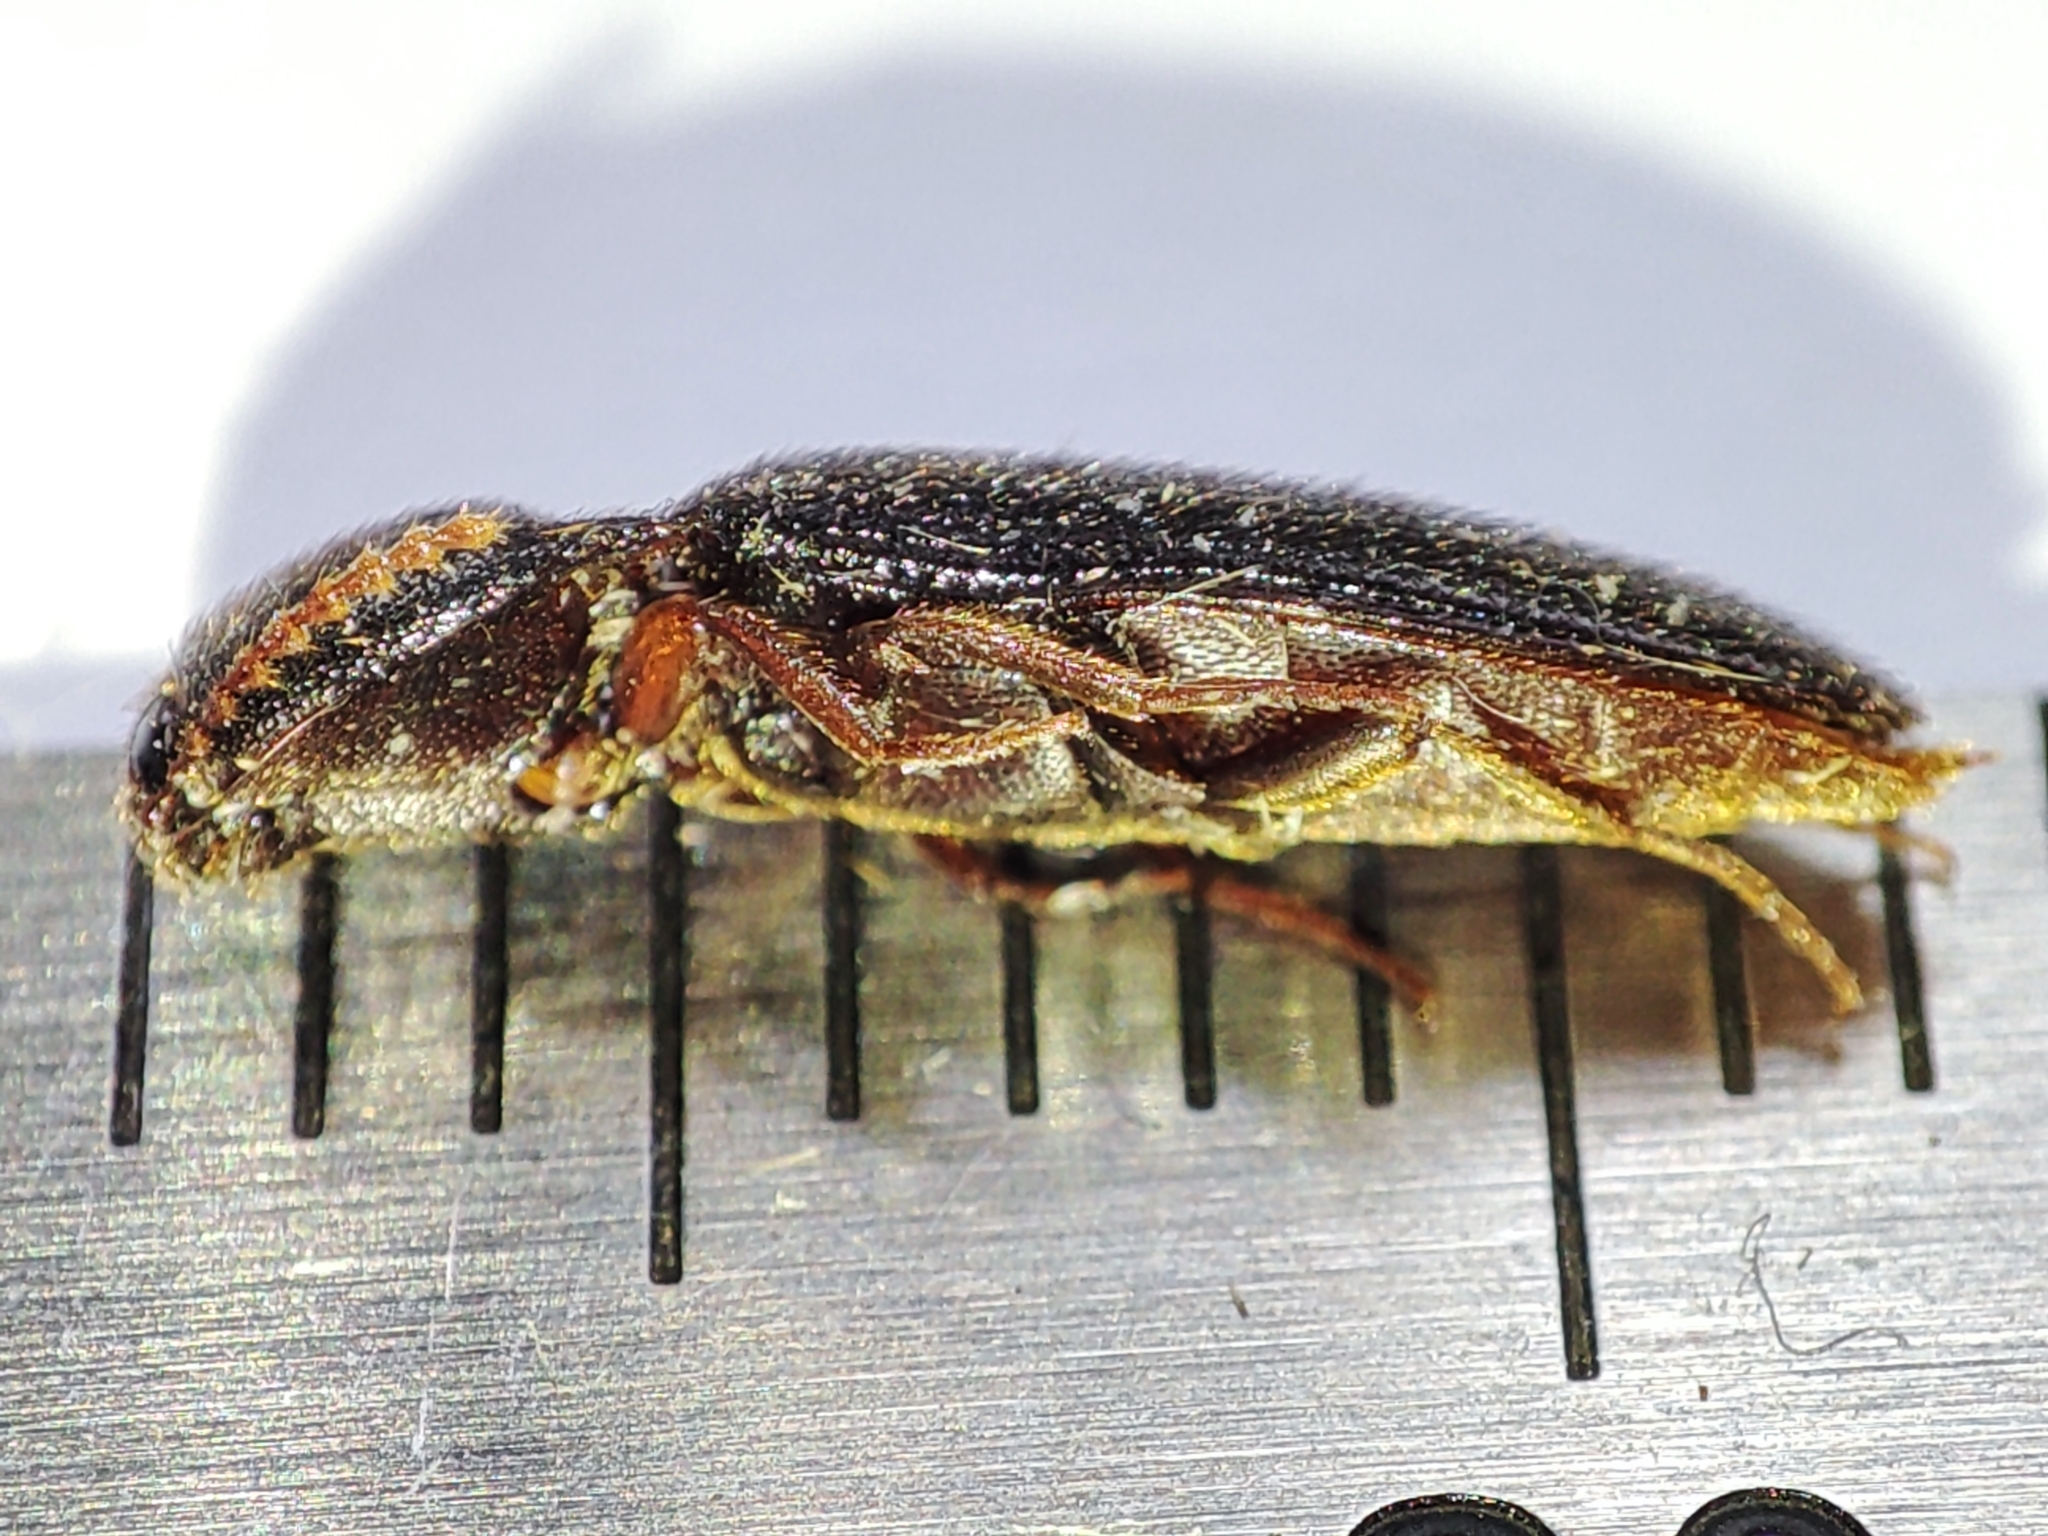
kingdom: Animalia
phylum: Arthropoda
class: Insecta
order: Coleoptera
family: Elateridae
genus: Brachygonus
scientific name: Brachygonus megerlei
